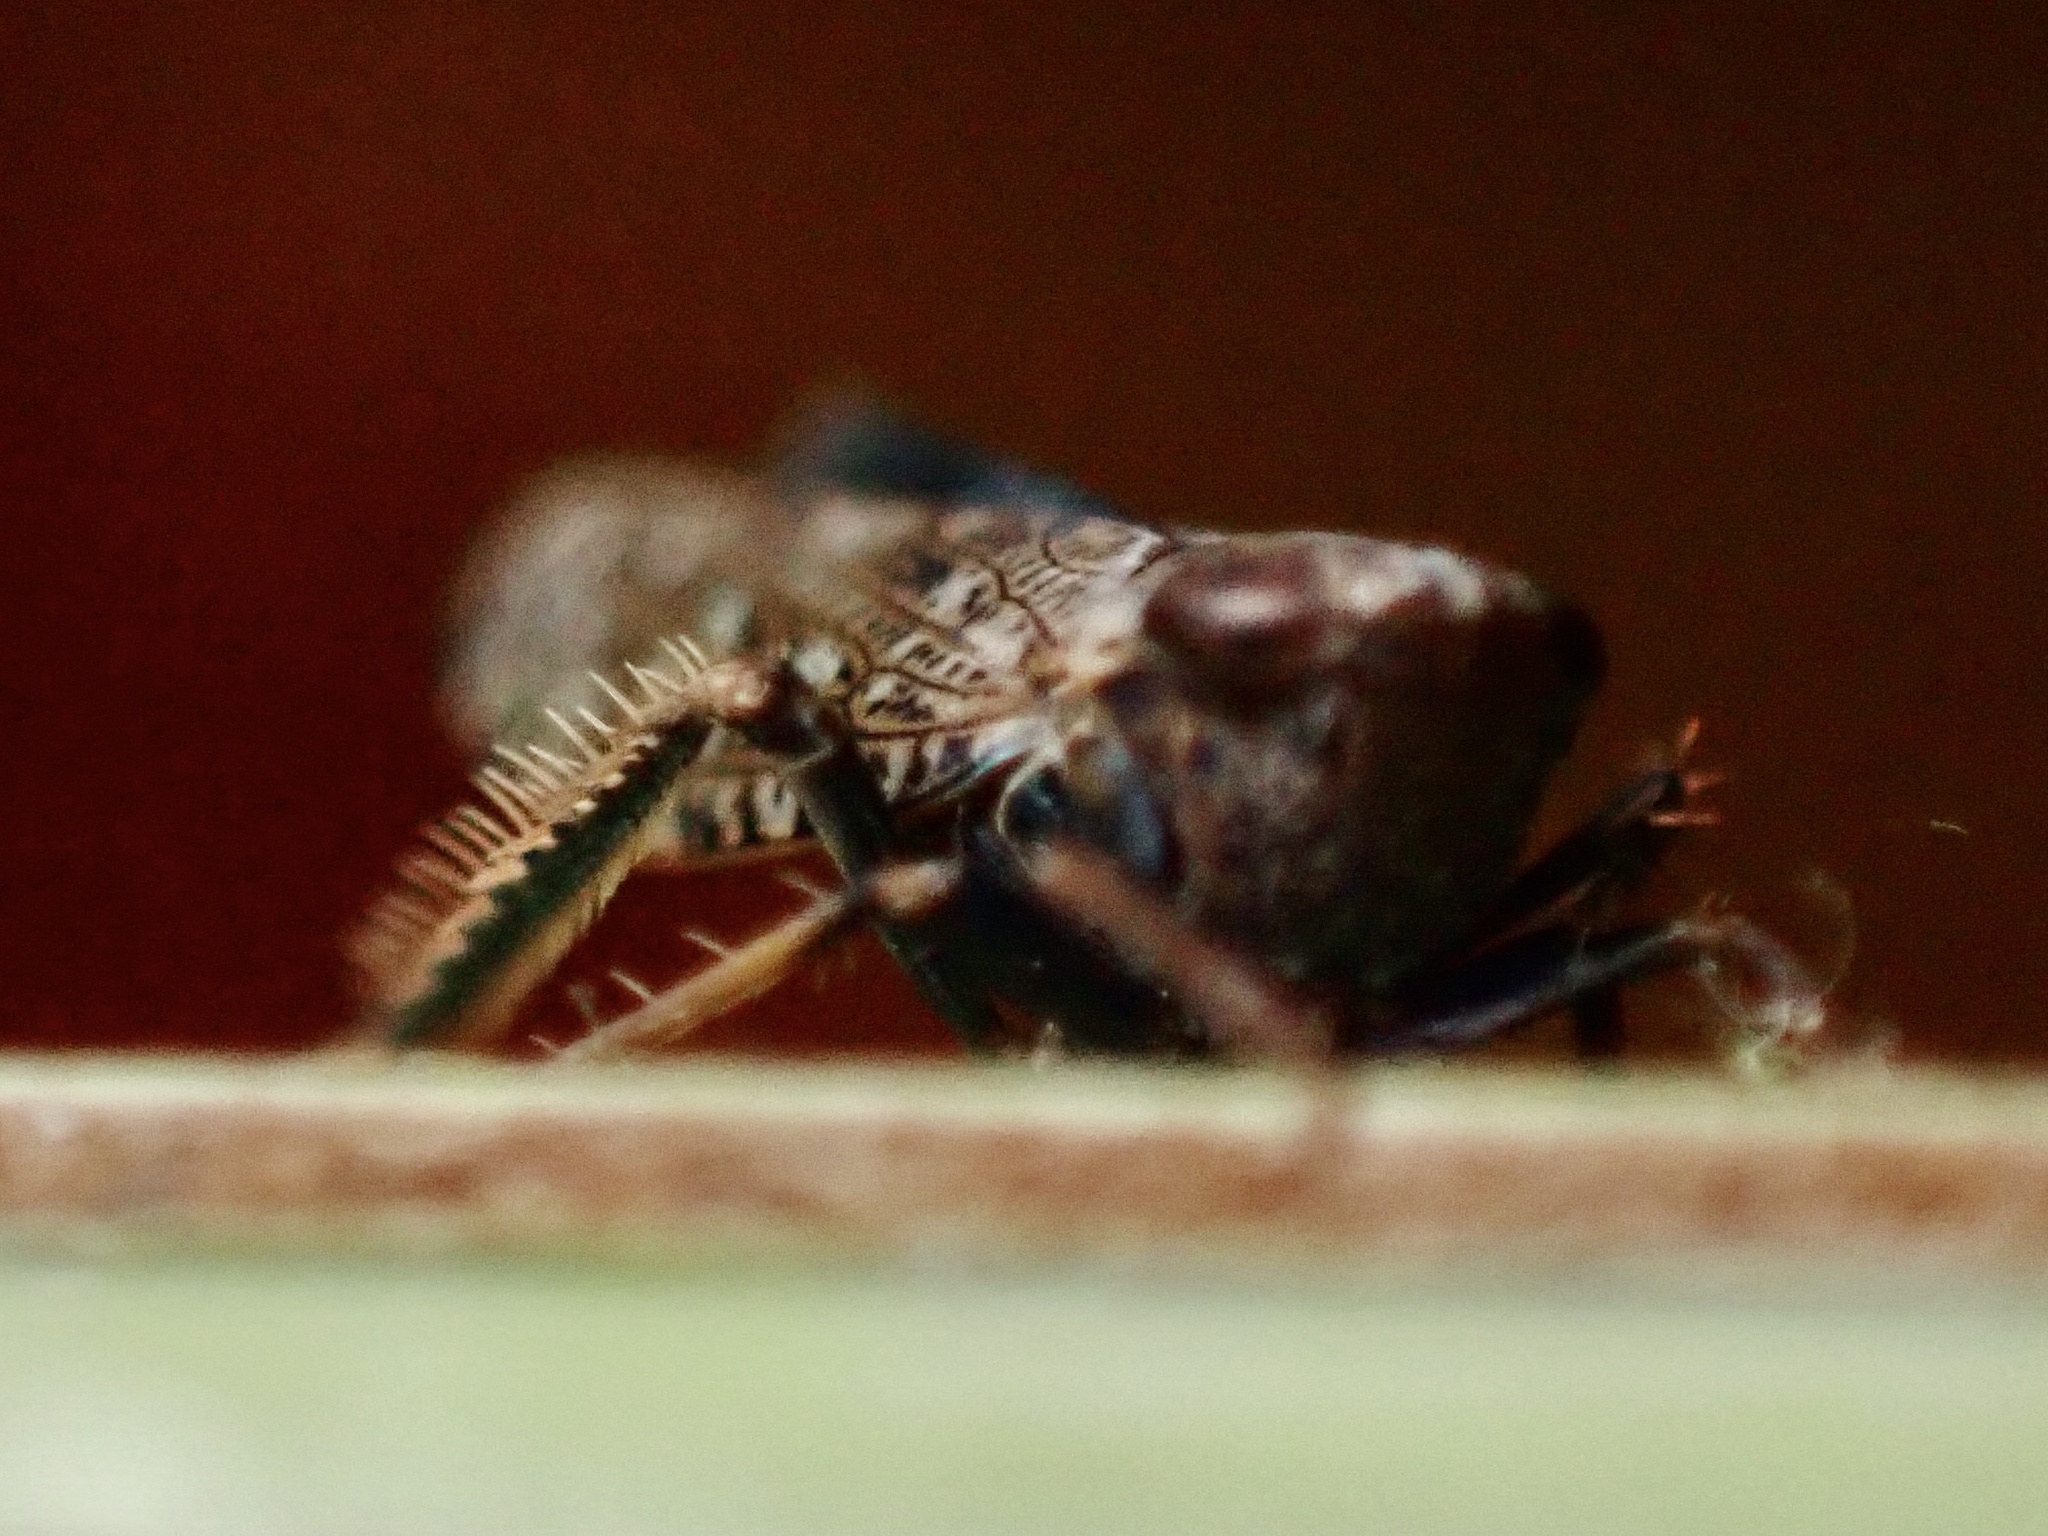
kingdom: Animalia
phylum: Arthropoda
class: Insecta
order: Hemiptera
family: Cicadellidae
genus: Orientus
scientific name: Orientus ishidae
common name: Japanese leafhopper
